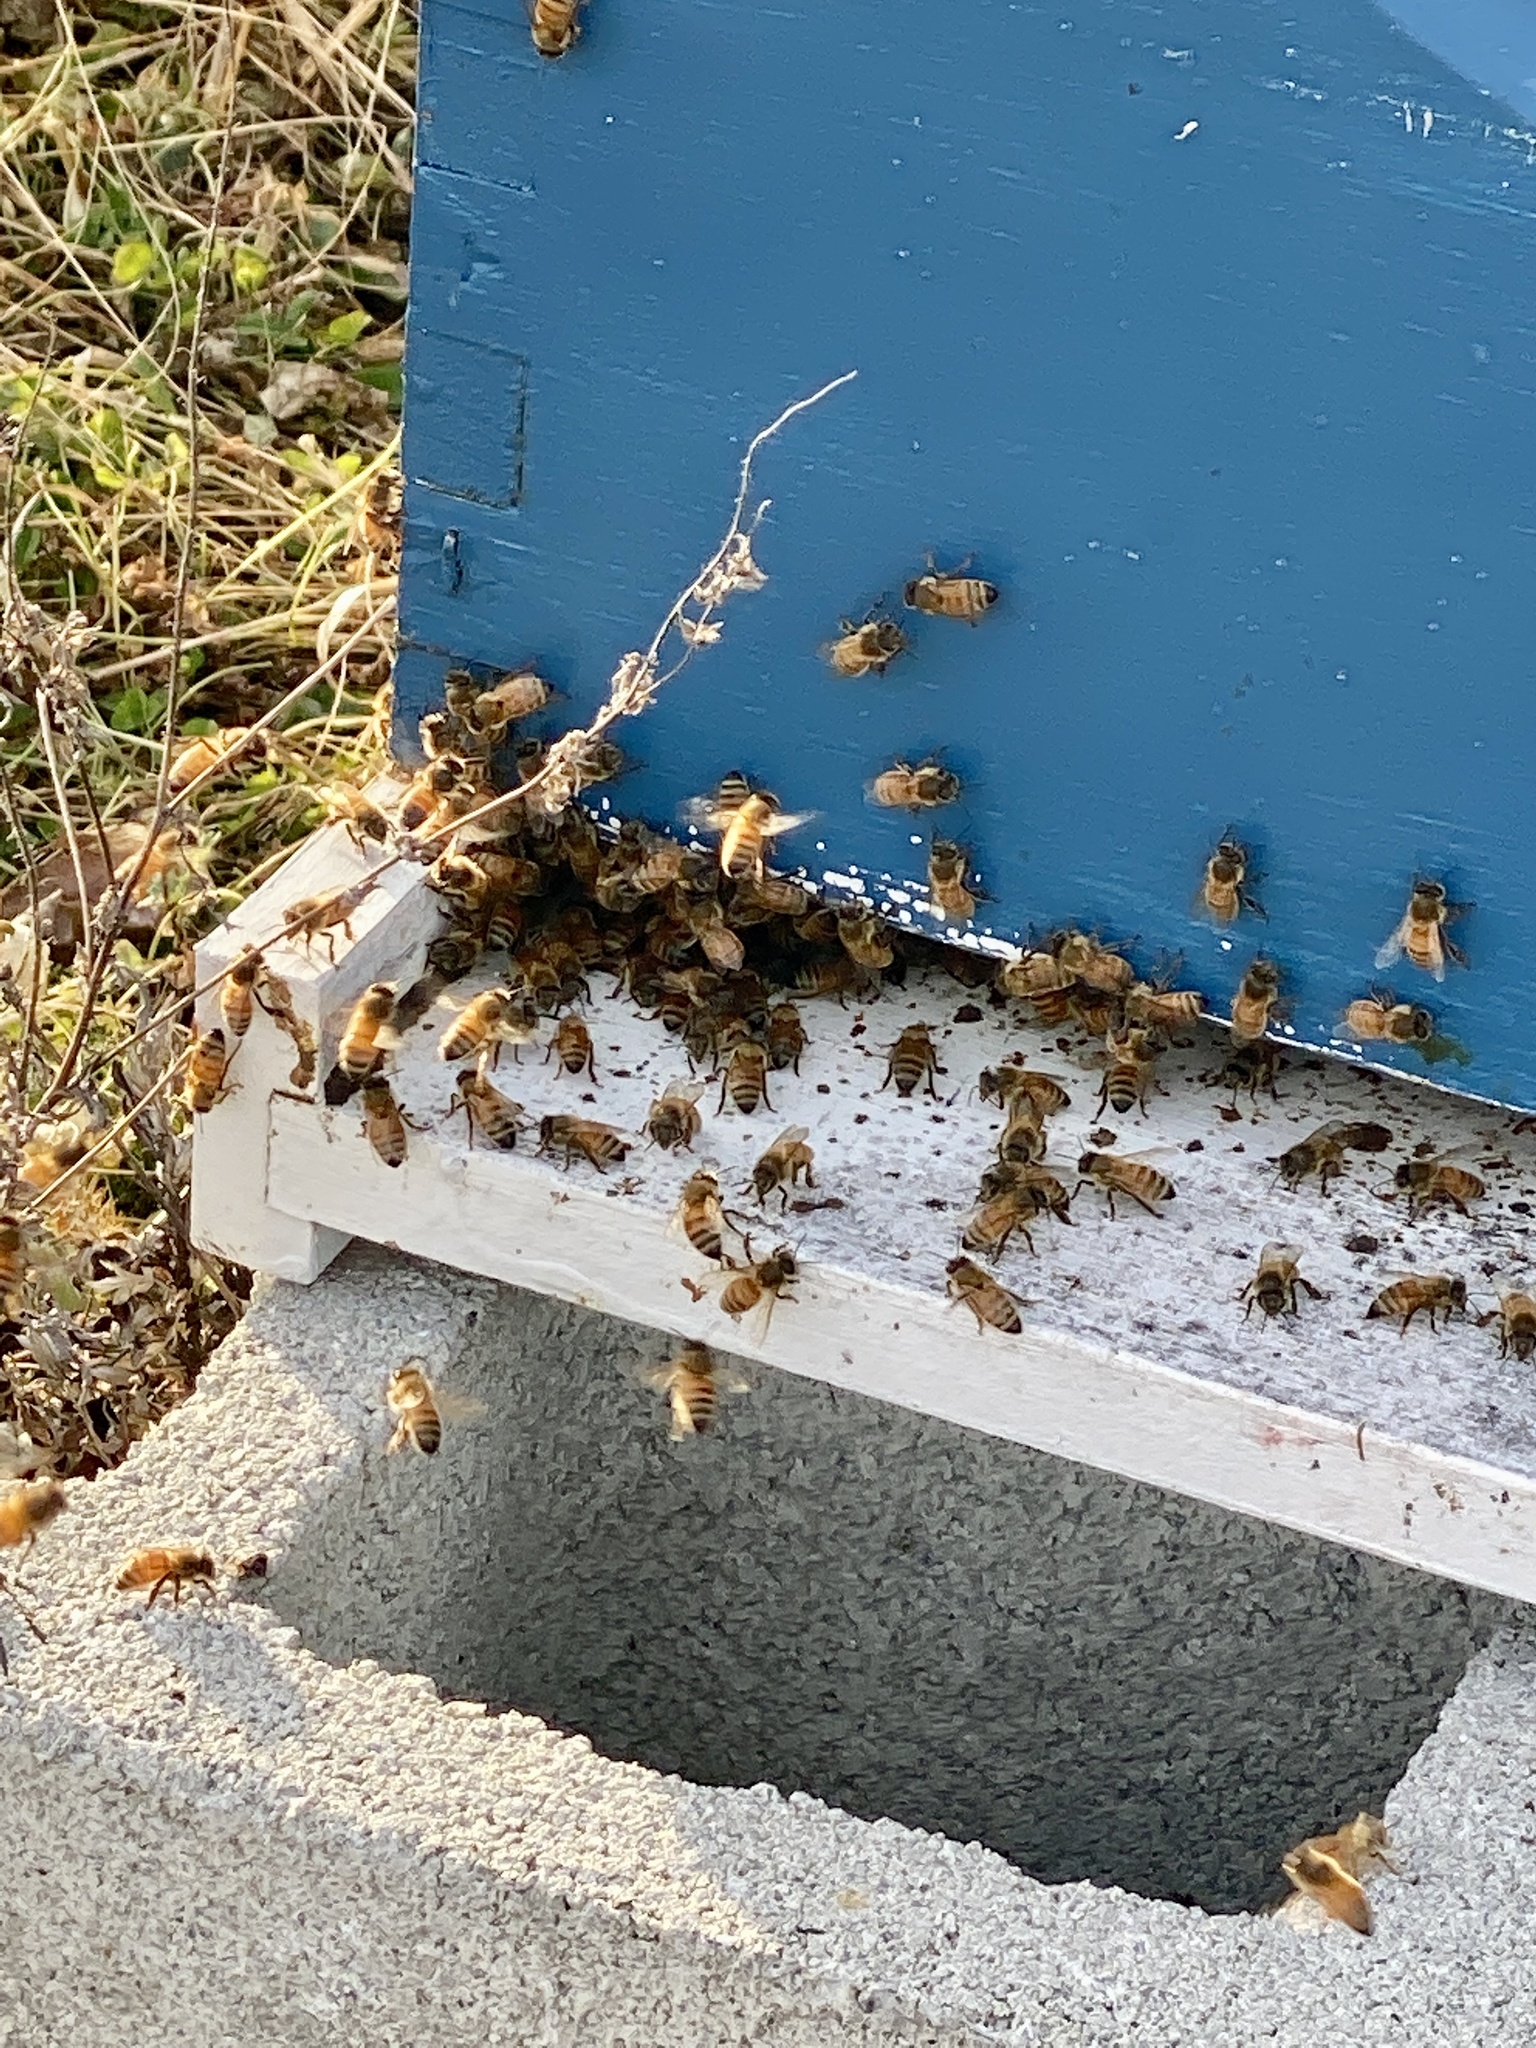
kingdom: Animalia
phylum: Arthropoda
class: Insecta
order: Hymenoptera
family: Apidae
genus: Apis
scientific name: Apis mellifera
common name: Honey bee
